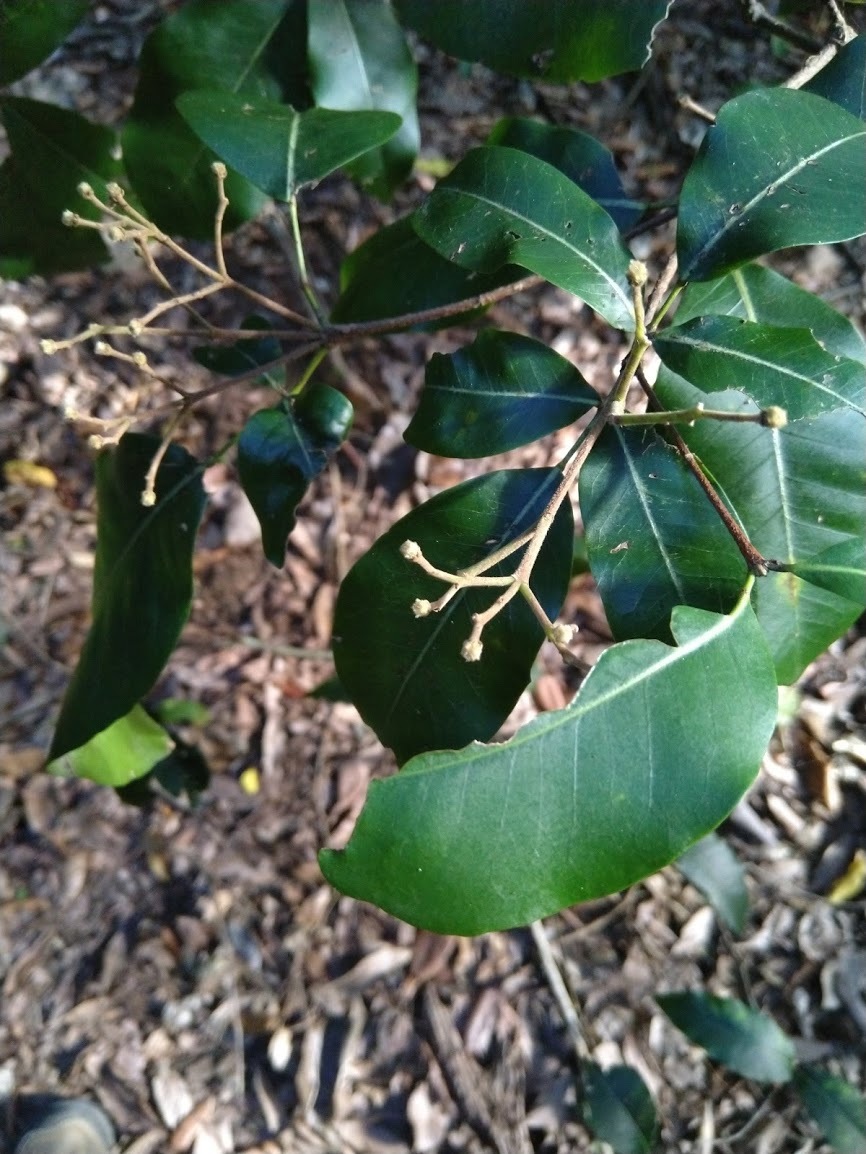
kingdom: Plantae
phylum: Tracheophyta
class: Magnoliopsida
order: Sapindales
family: Rutaceae
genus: Bosistoa
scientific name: Bosistoa transversa
